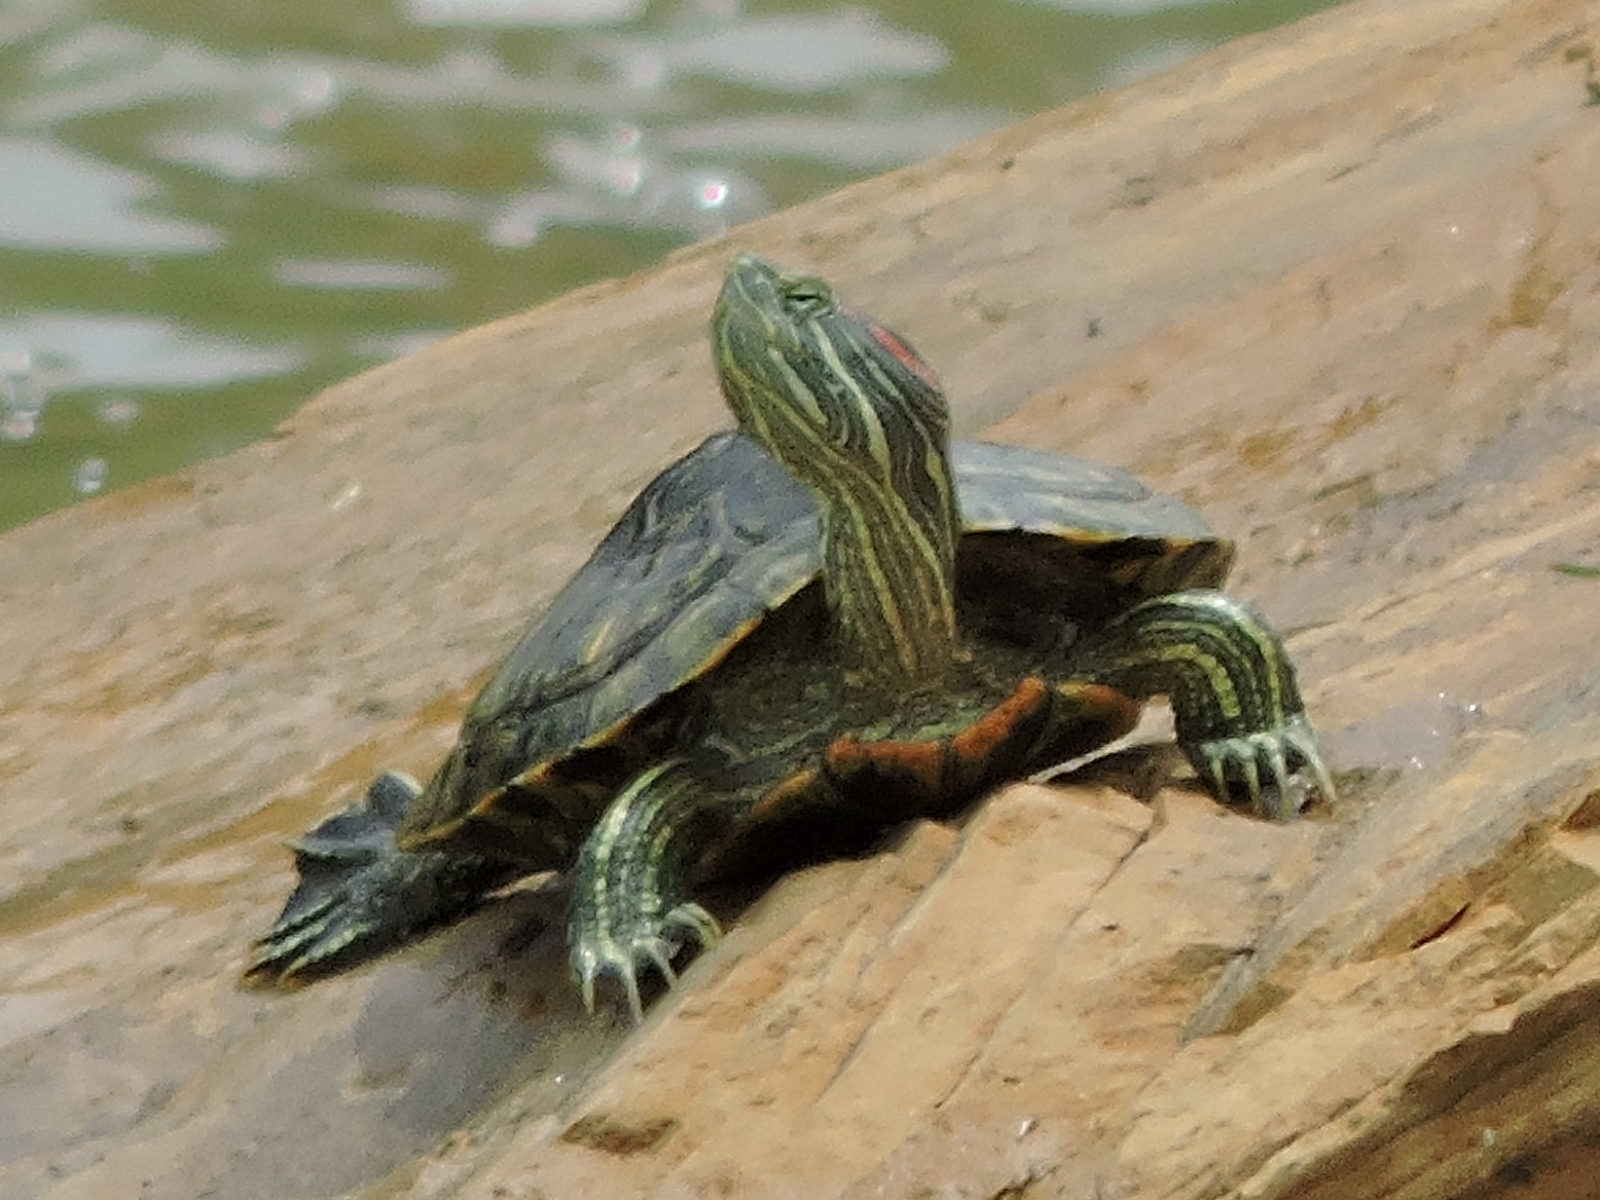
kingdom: Animalia
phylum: Chordata
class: Testudines
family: Emydidae
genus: Trachemys
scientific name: Trachemys scripta
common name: Slider
